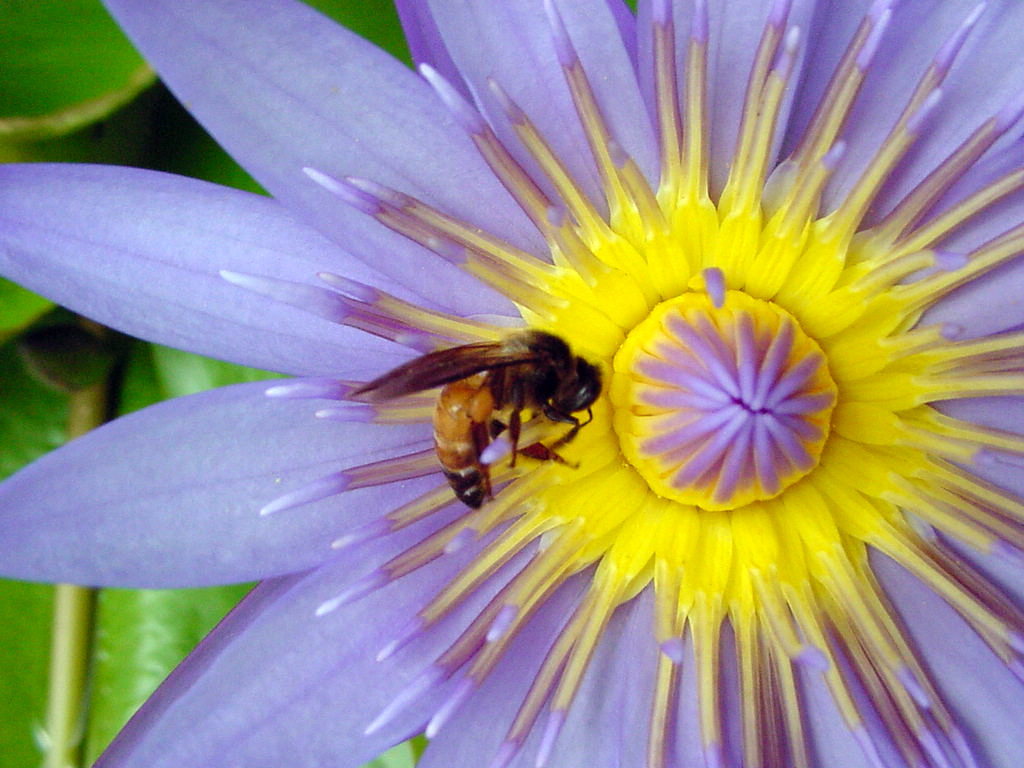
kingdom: Animalia
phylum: Arthropoda
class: Insecta
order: Hymenoptera
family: Apidae
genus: Apis
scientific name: Apis dorsata
